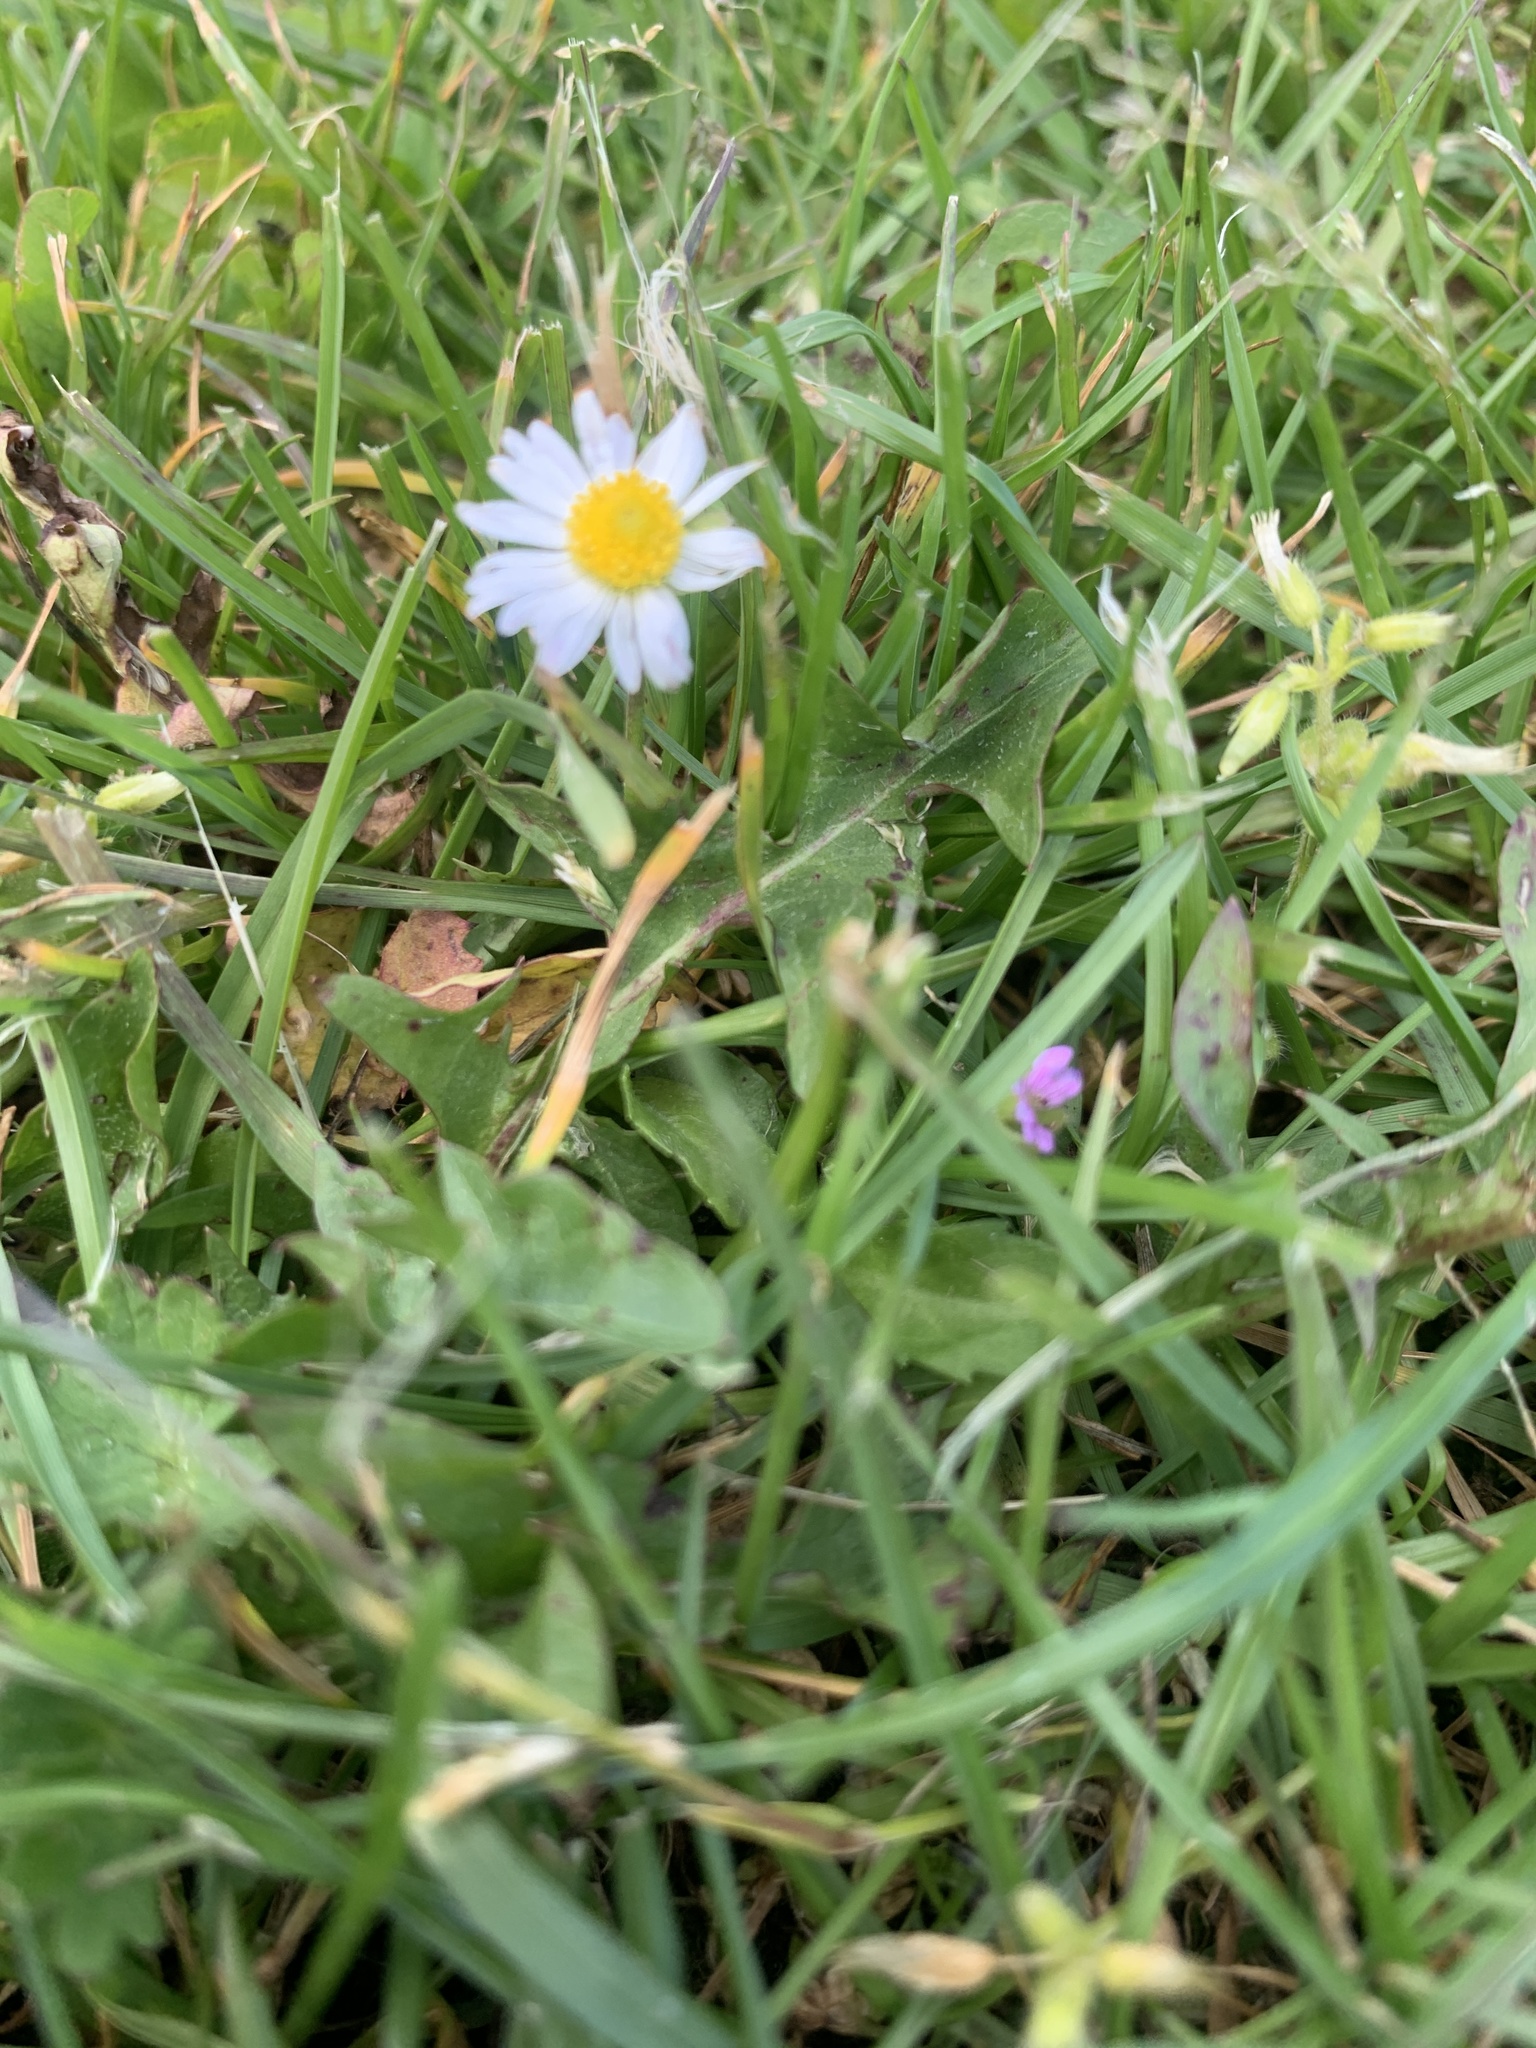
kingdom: Plantae
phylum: Tracheophyta
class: Magnoliopsida
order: Asterales
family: Asteraceae
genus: Bellis
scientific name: Bellis perennis
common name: Lawndaisy
